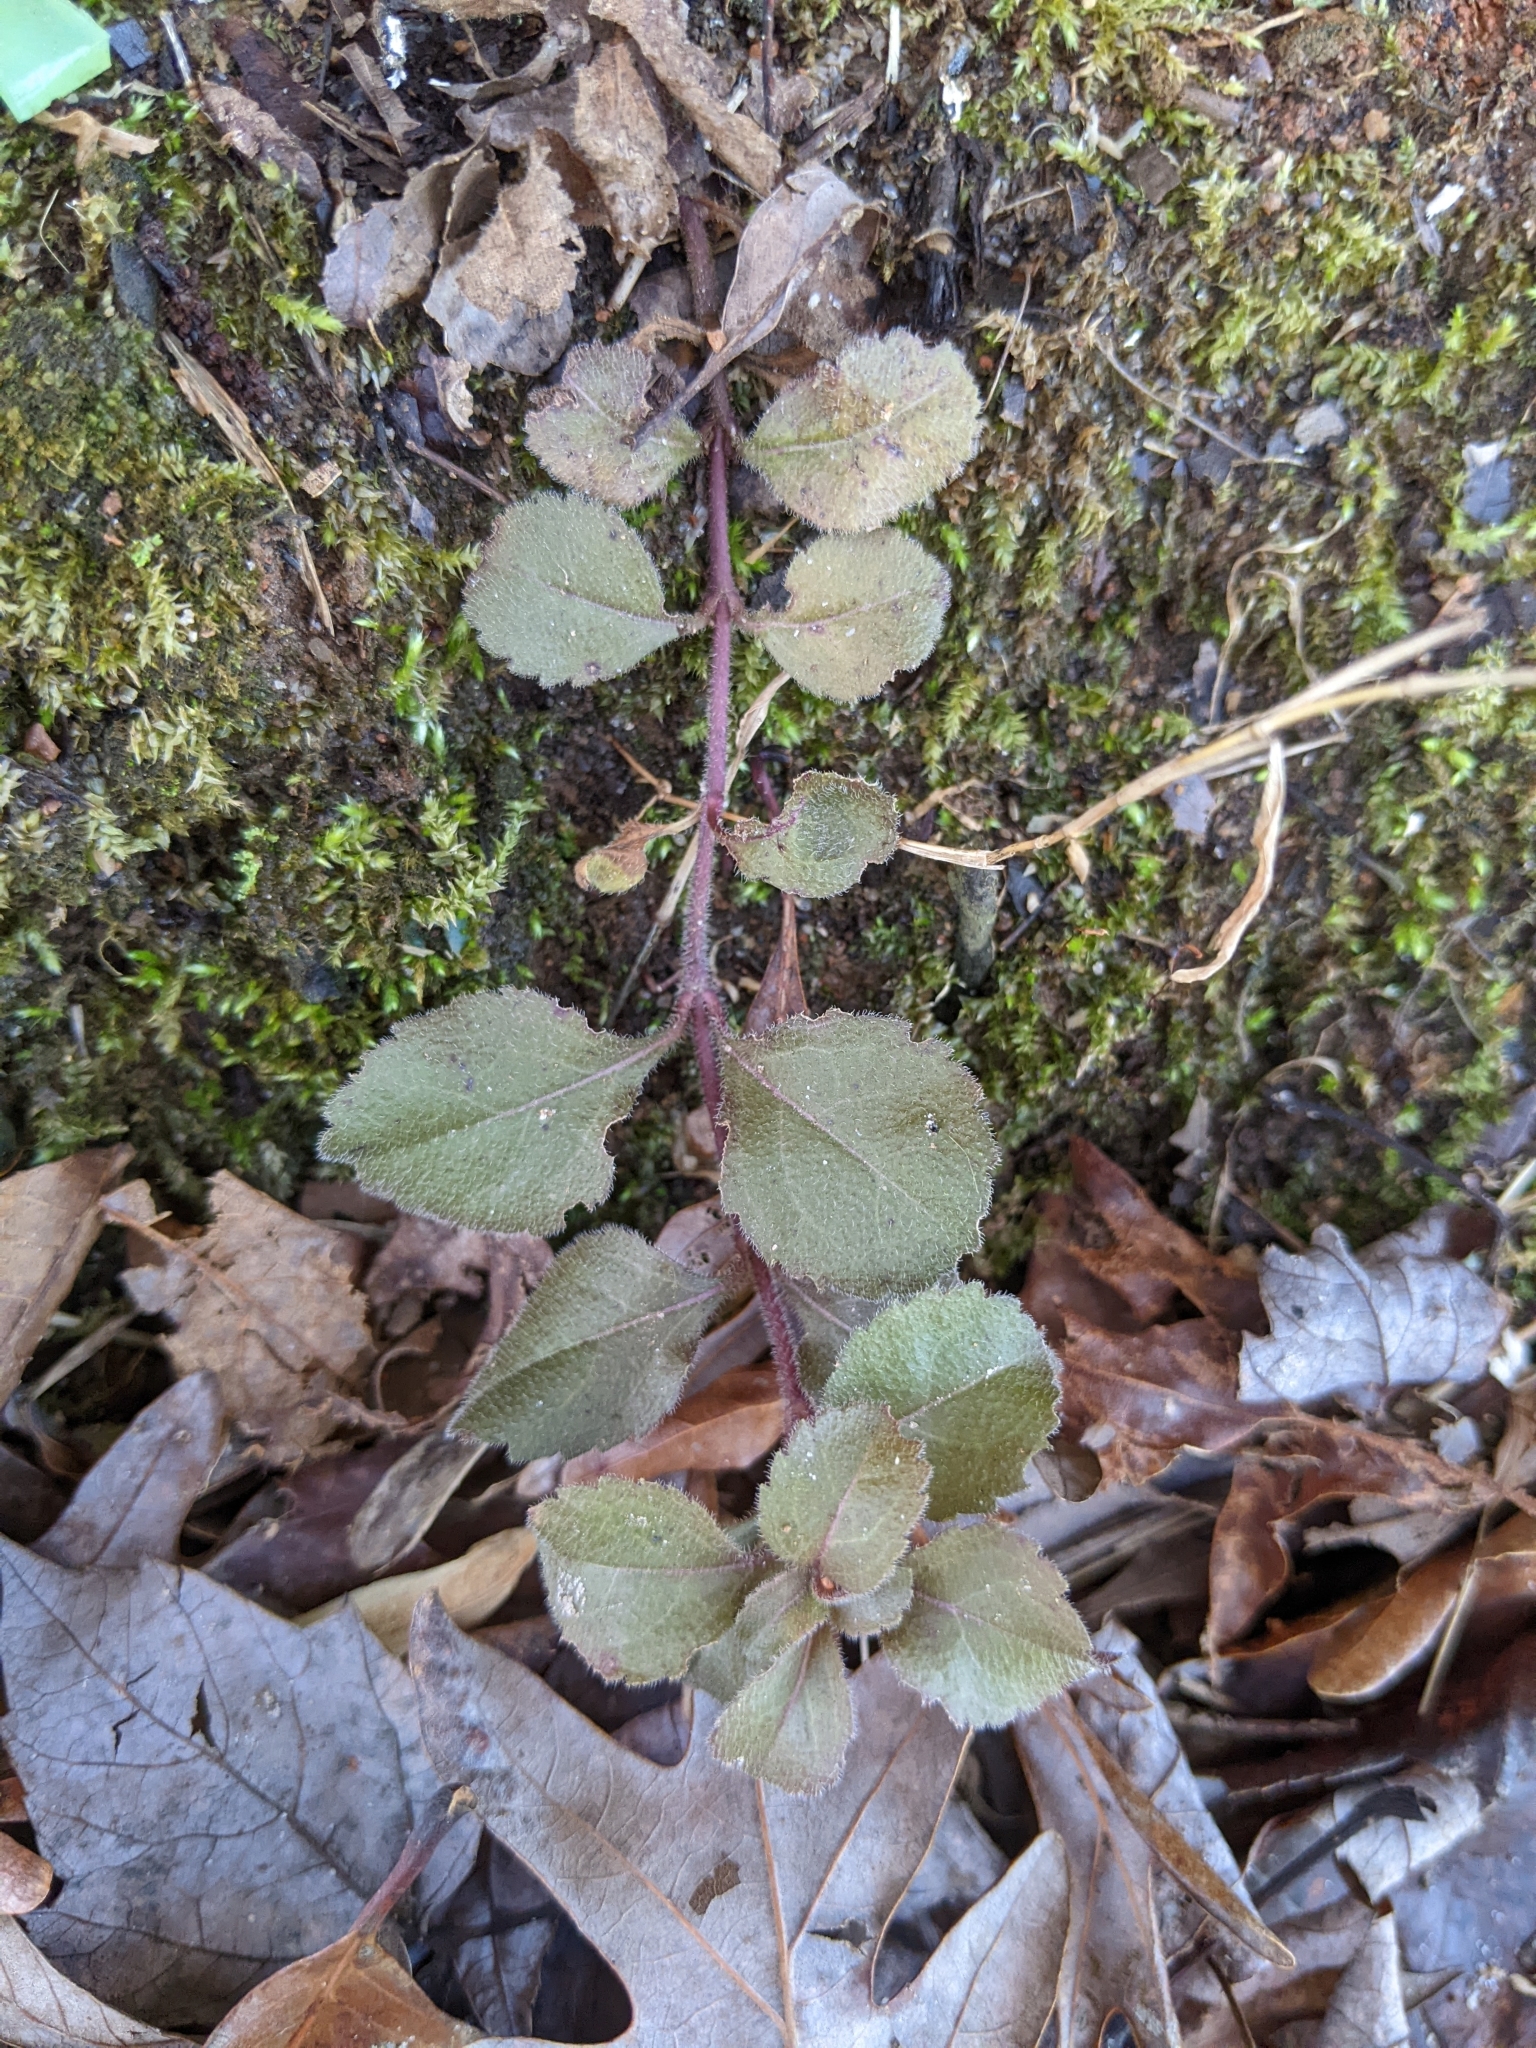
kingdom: Plantae
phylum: Tracheophyta
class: Magnoliopsida
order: Lamiales
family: Plantaginaceae
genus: Veronica
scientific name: Veronica officinalis
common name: Common speedwell
